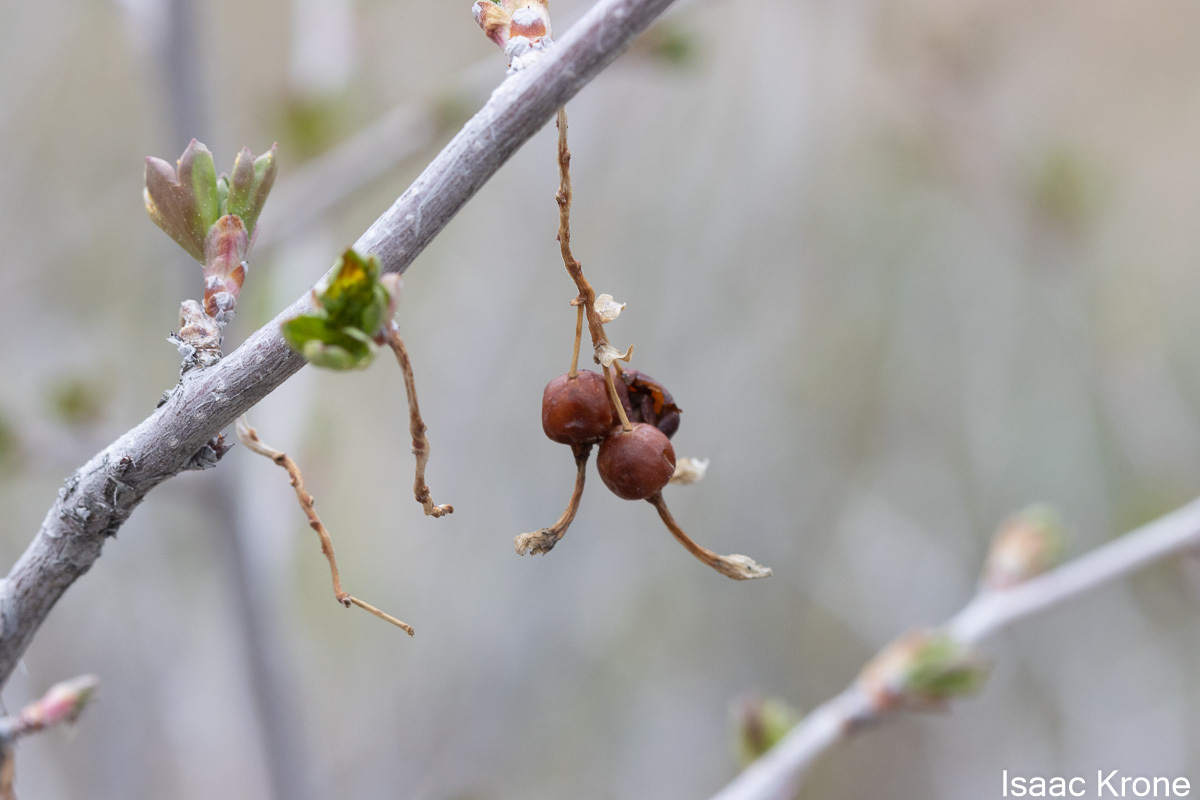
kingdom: Plantae
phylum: Tracheophyta
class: Magnoliopsida
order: Saxifragales
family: Grossulariaceae
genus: Ribes
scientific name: Ribes aureum
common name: Golden currant
